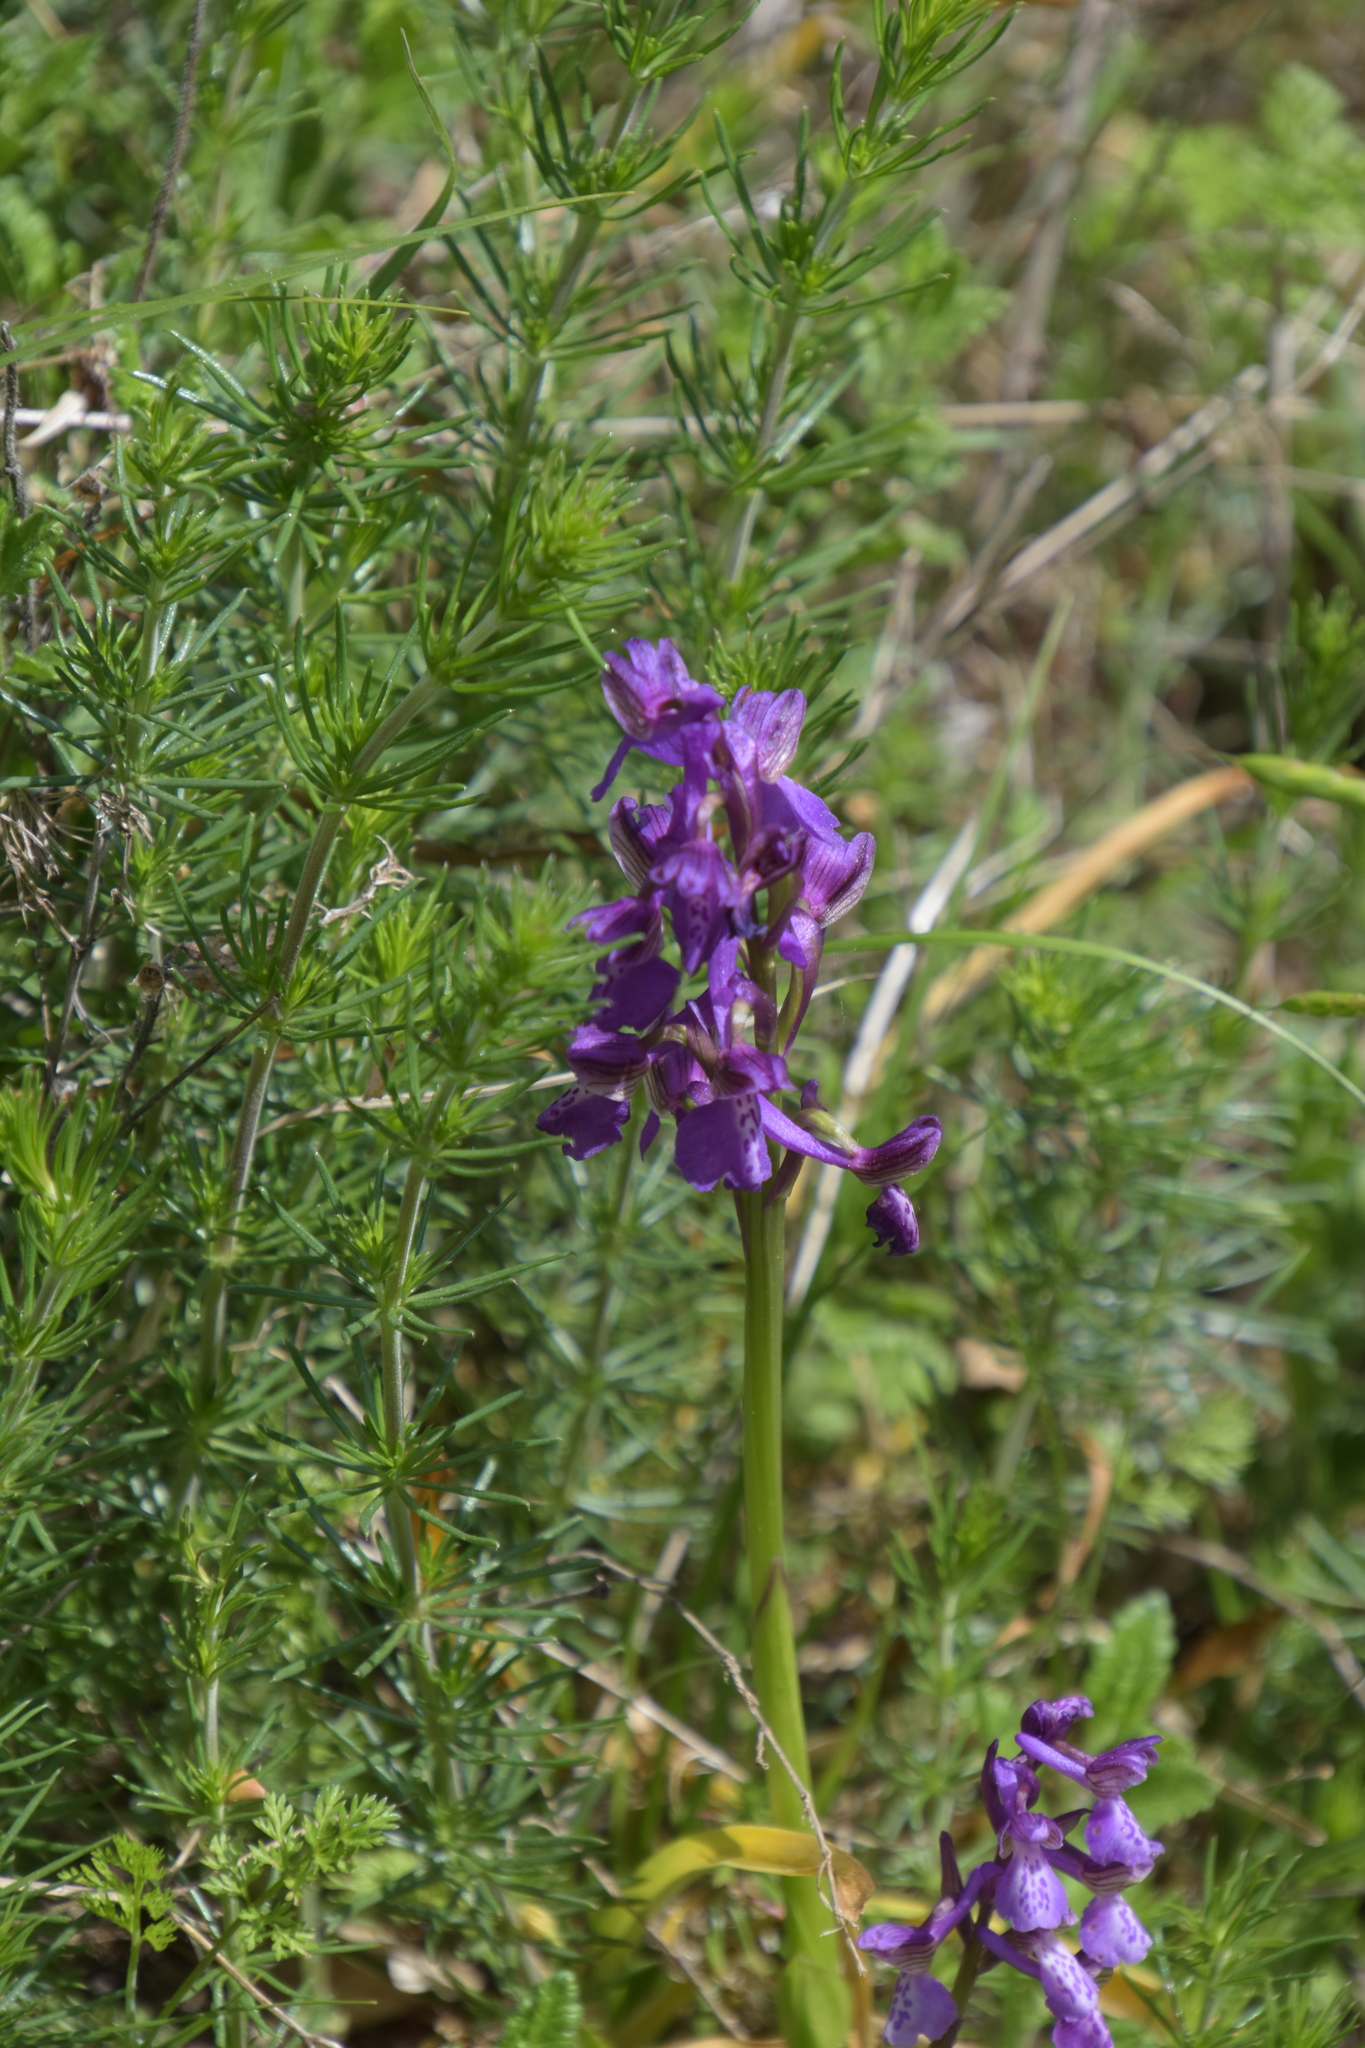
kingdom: Plantae
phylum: Tracheophyta
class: Liliopsida
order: Asparagales
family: Orchidaceae
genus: Anacamptis
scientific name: Anacamptis morio
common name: Green-winged orchid
